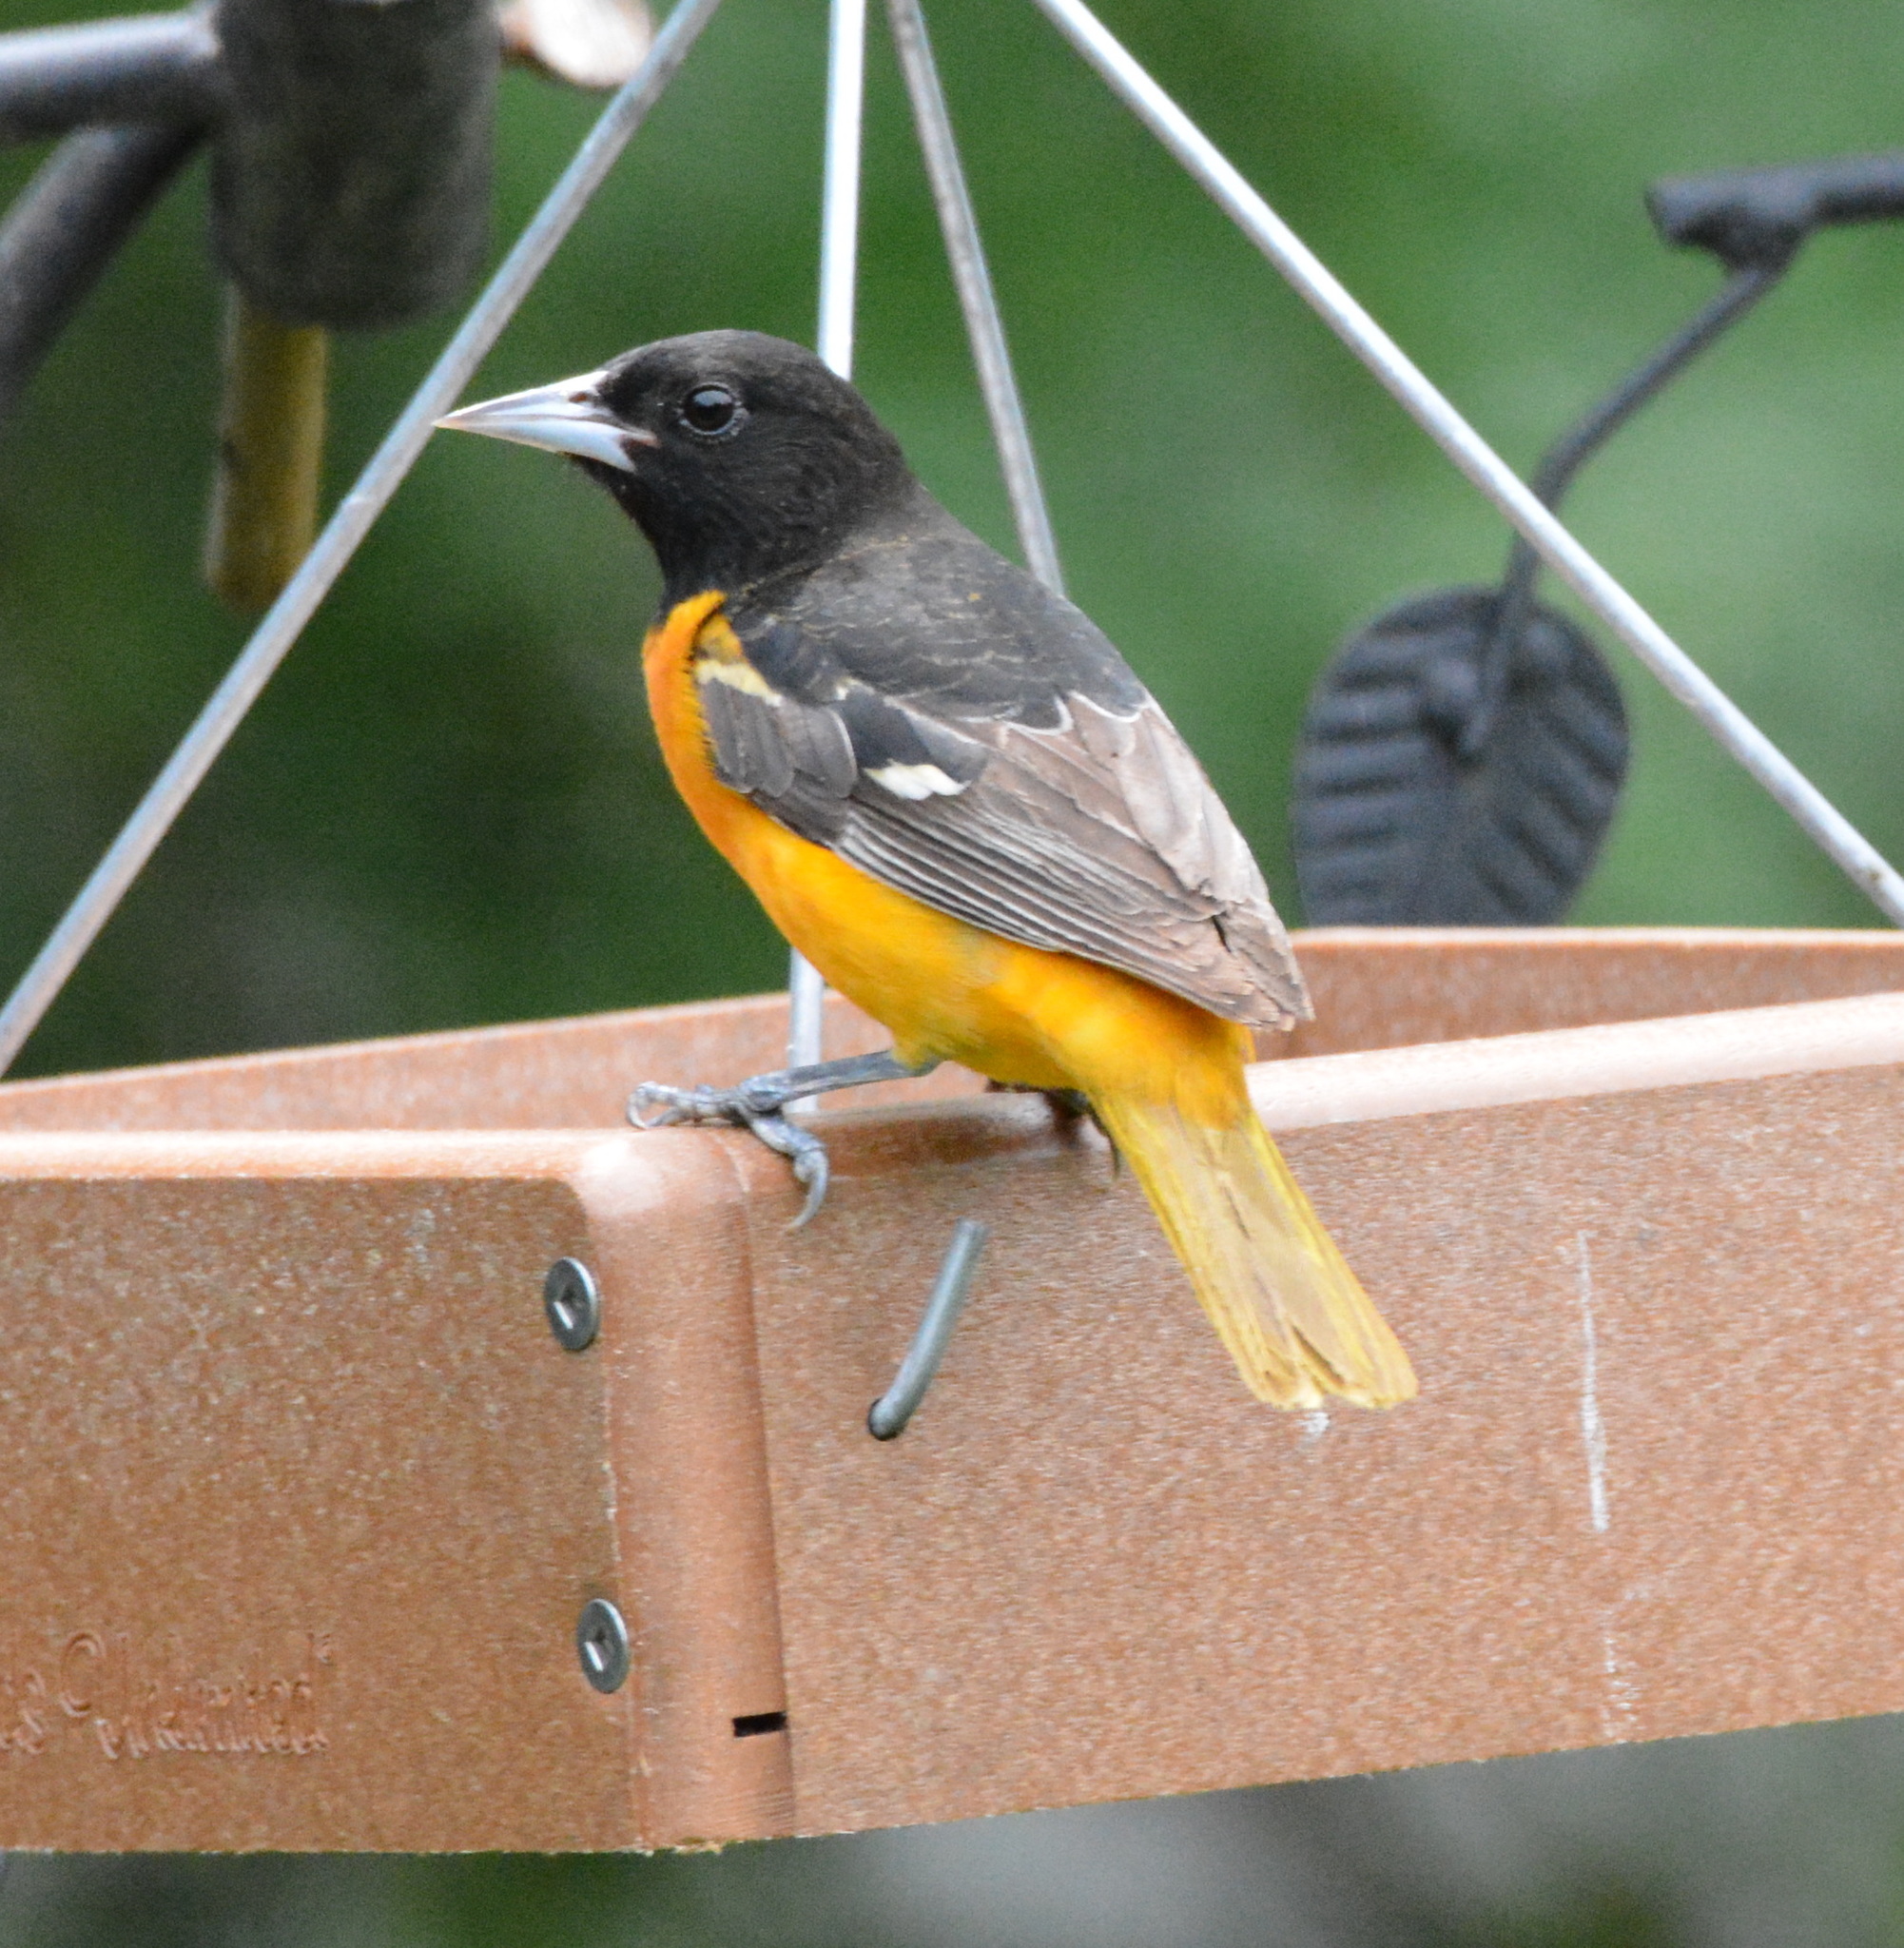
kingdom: Animalia
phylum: Chordata
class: Aves
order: Passeriformes
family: Icteridae
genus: Icterus
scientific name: Icterus galbula
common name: Baltimore oriole
